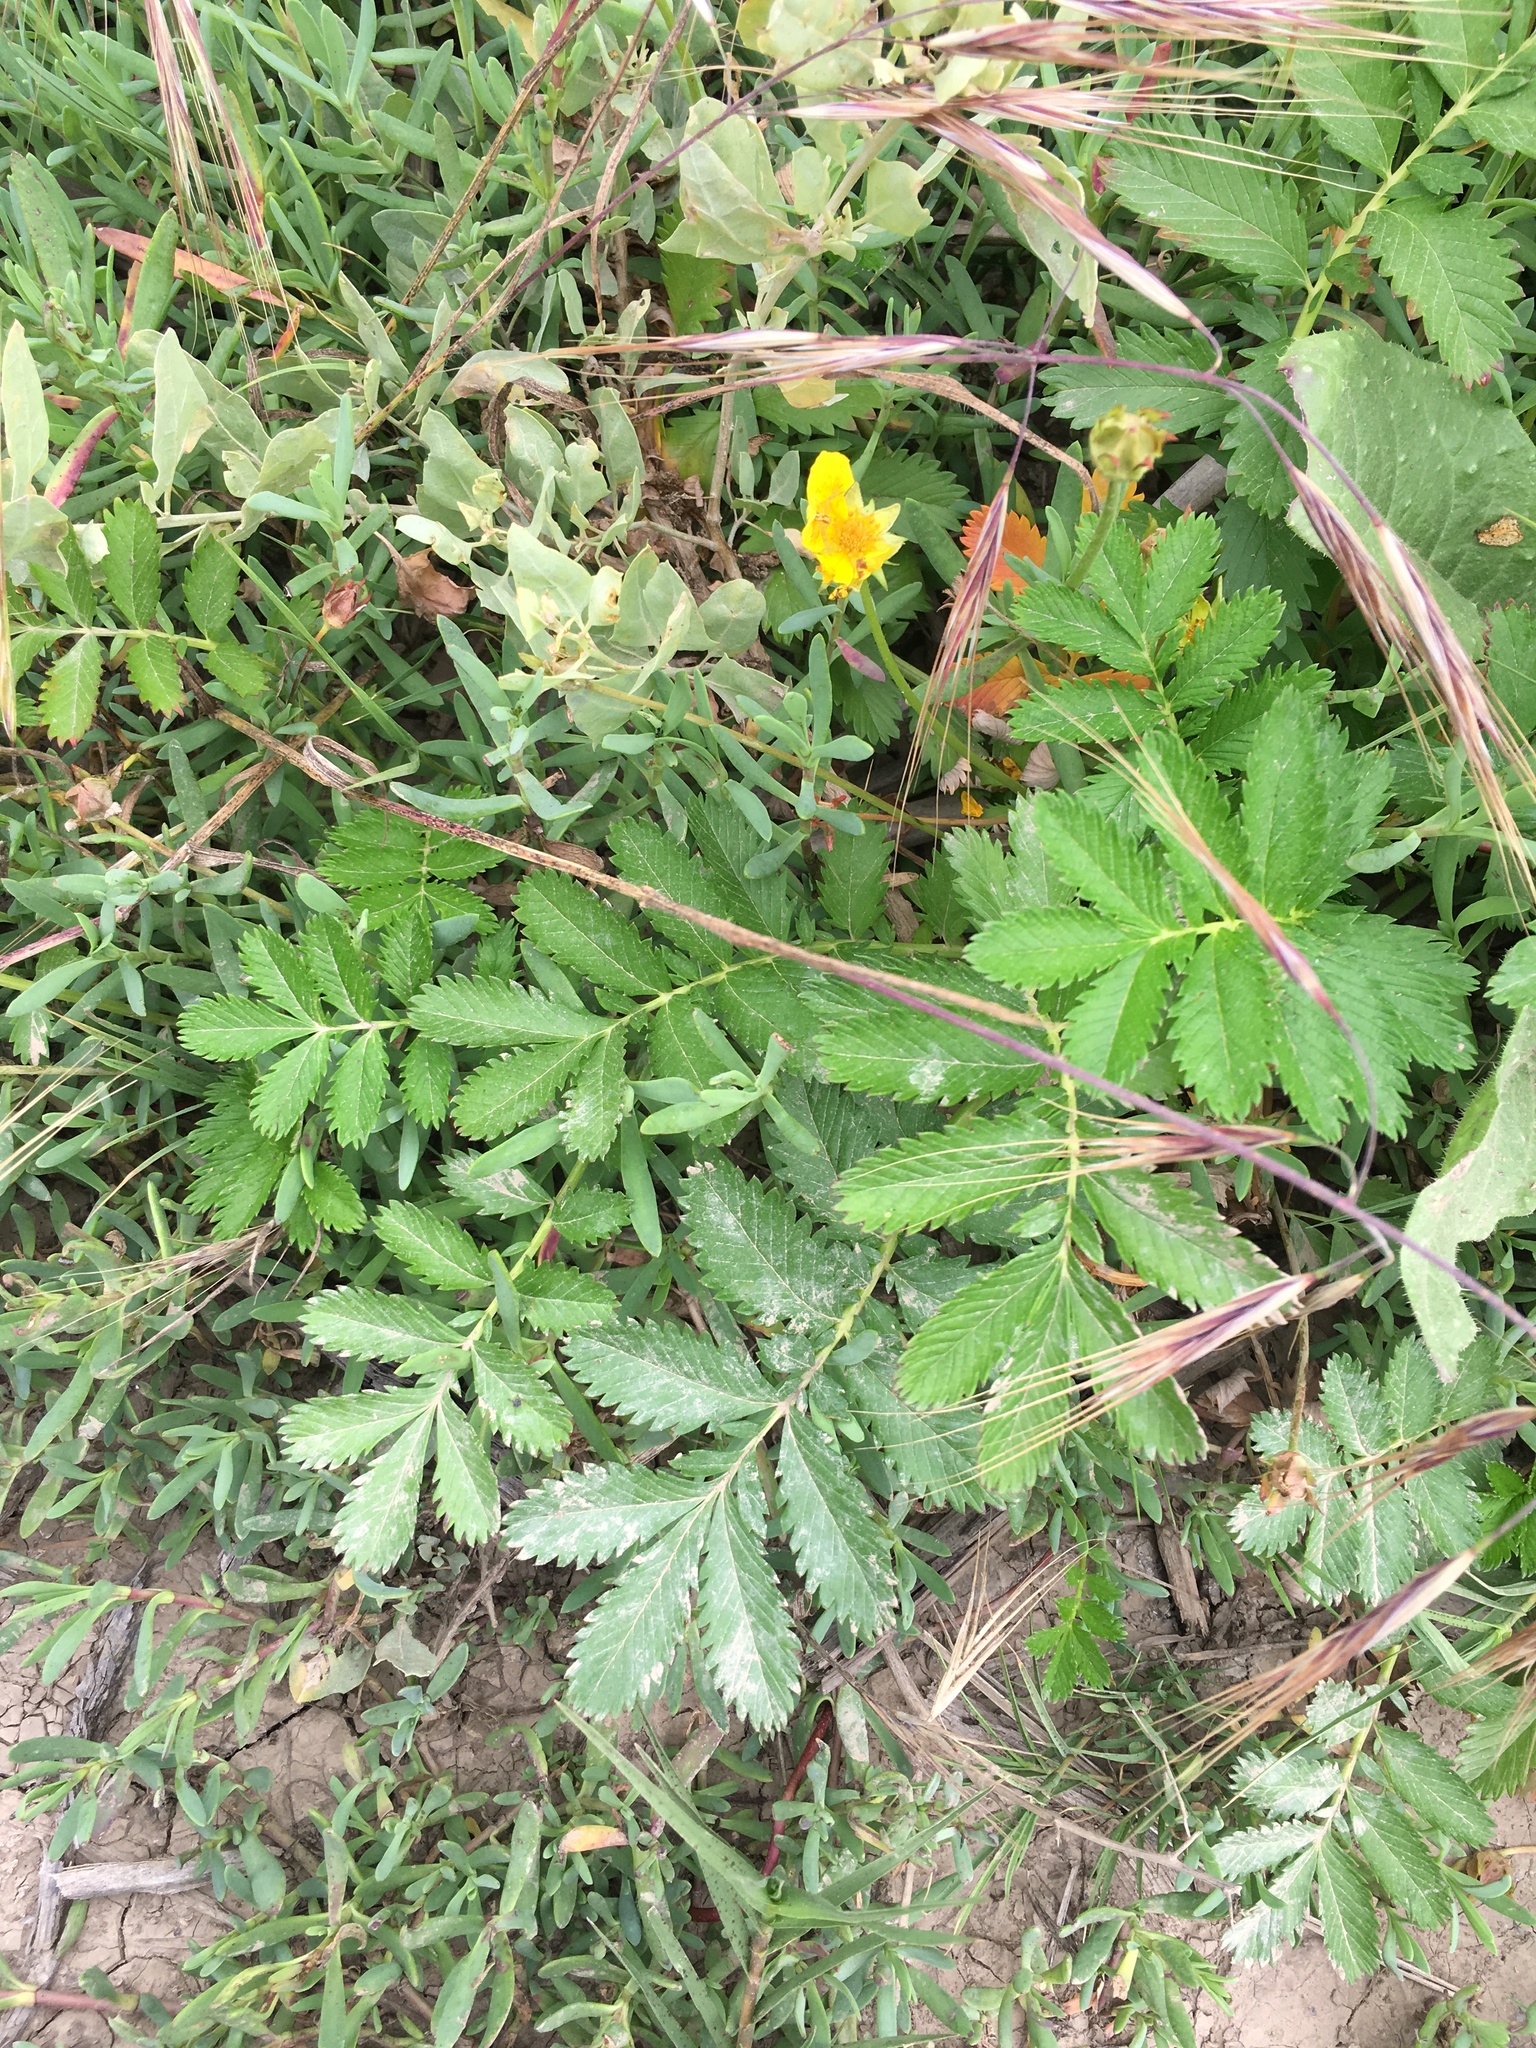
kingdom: Plantae
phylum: Tracheophyta
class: Magnoliopsida
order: Rosales
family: Rosaceae
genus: Argentina
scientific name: Argentina anserina
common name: Common silverweed
